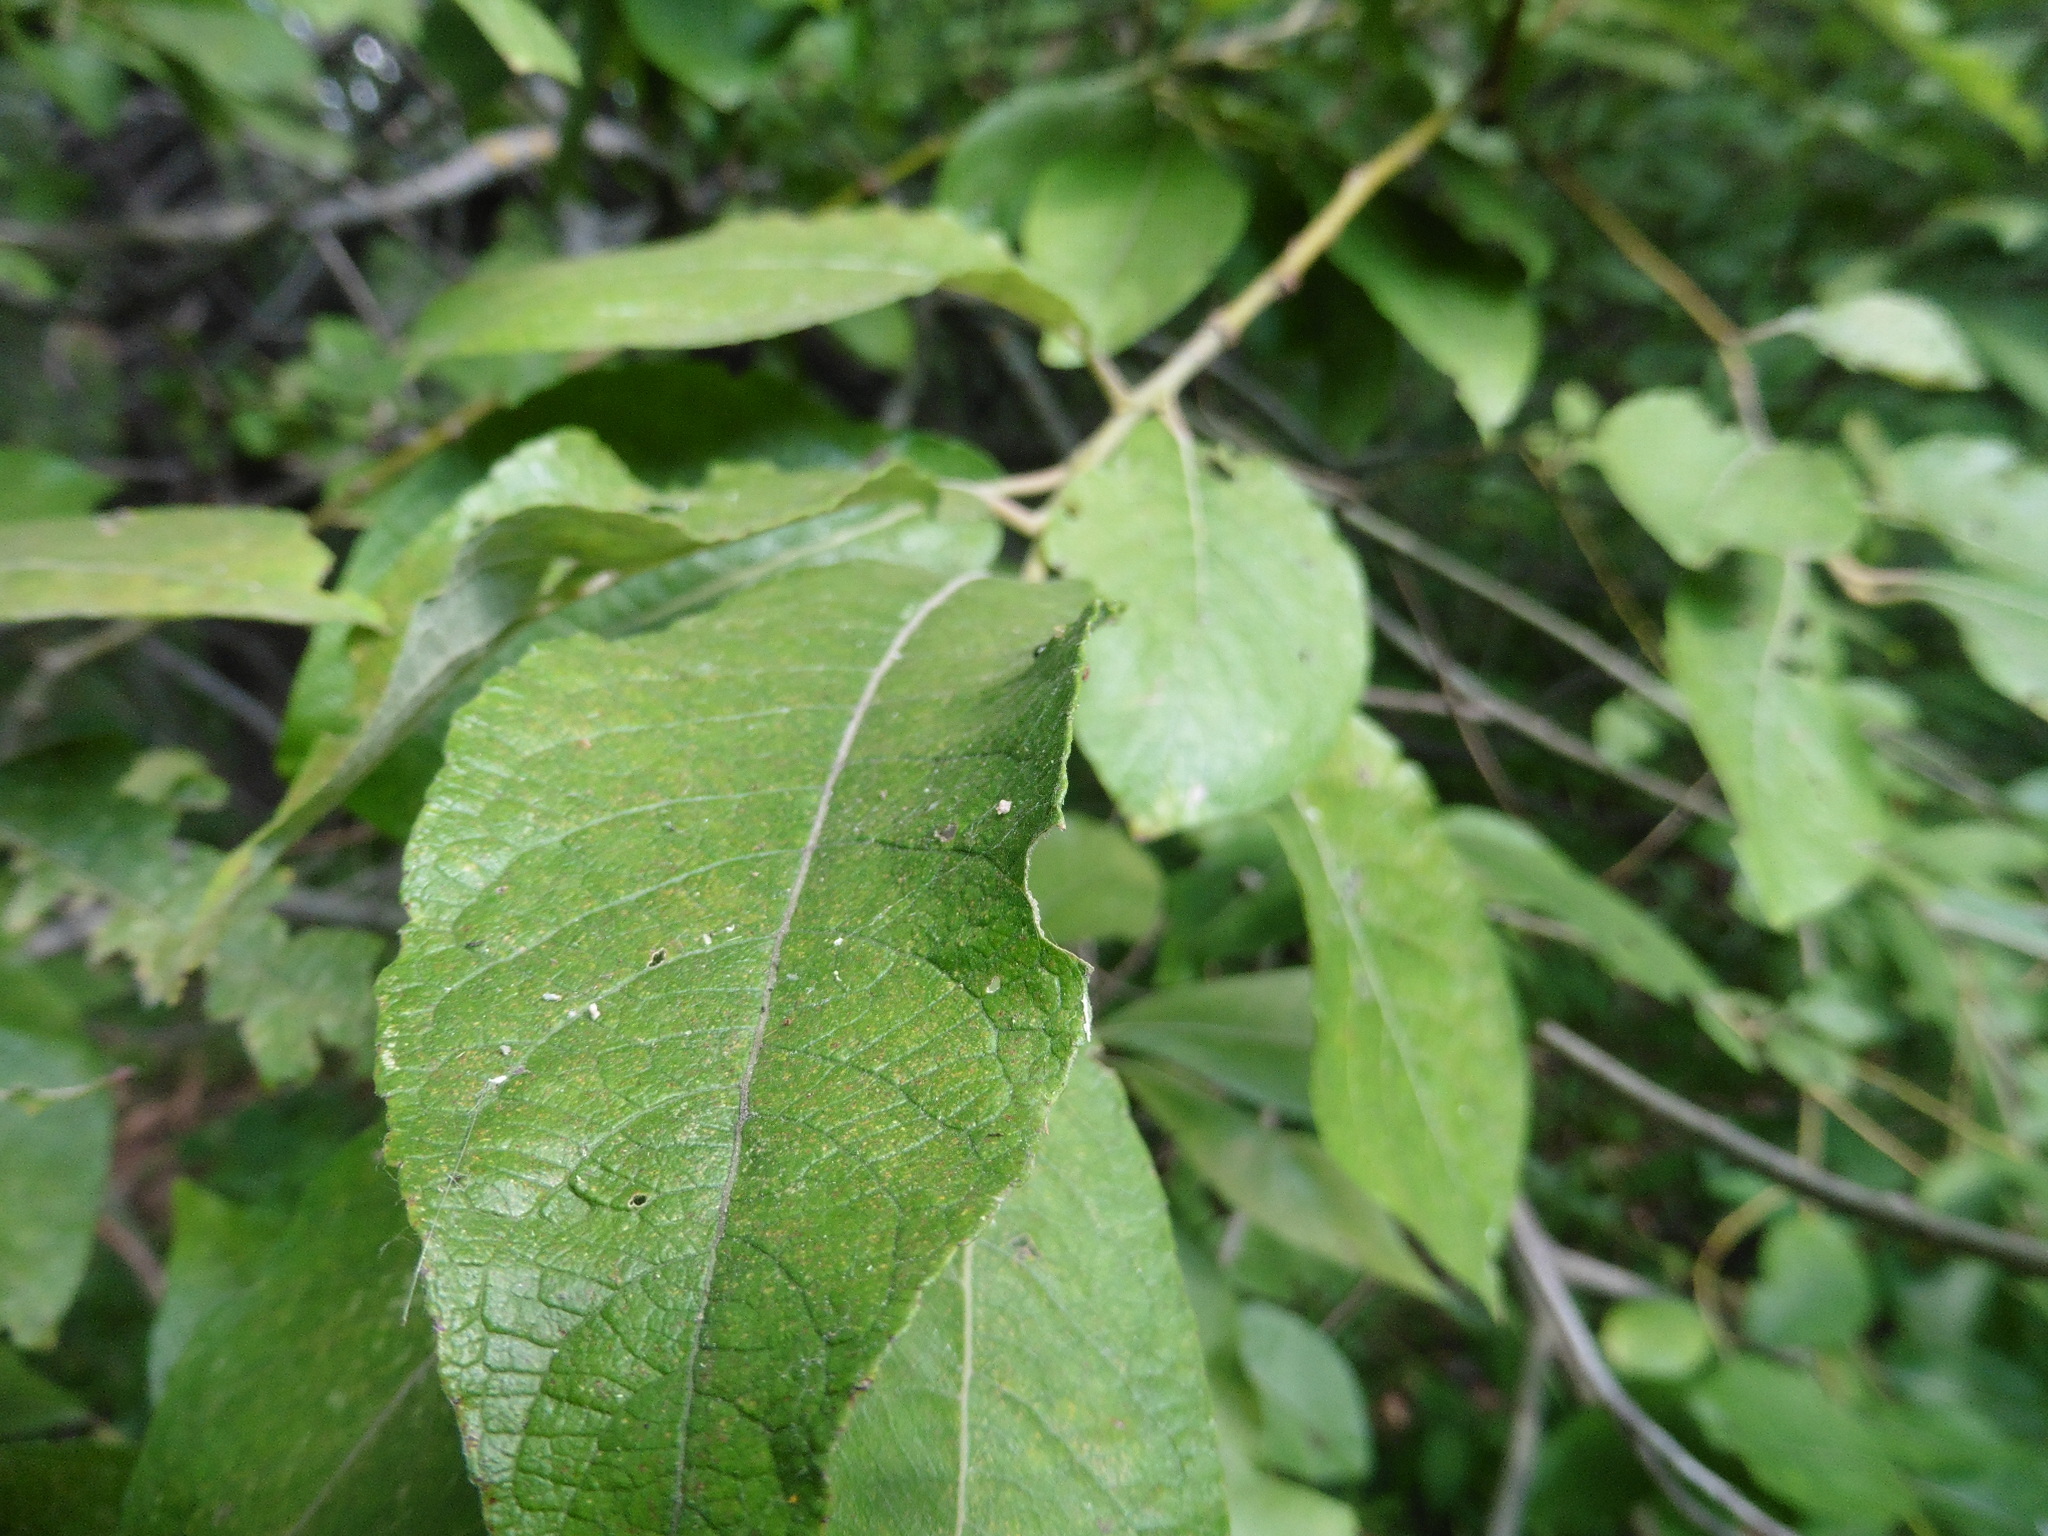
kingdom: Plantae
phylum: Tracheophyta
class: Magnoliopsida
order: Malpighiales
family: Salicaceae
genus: Salix
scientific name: Salix caprea
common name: Goat willow
